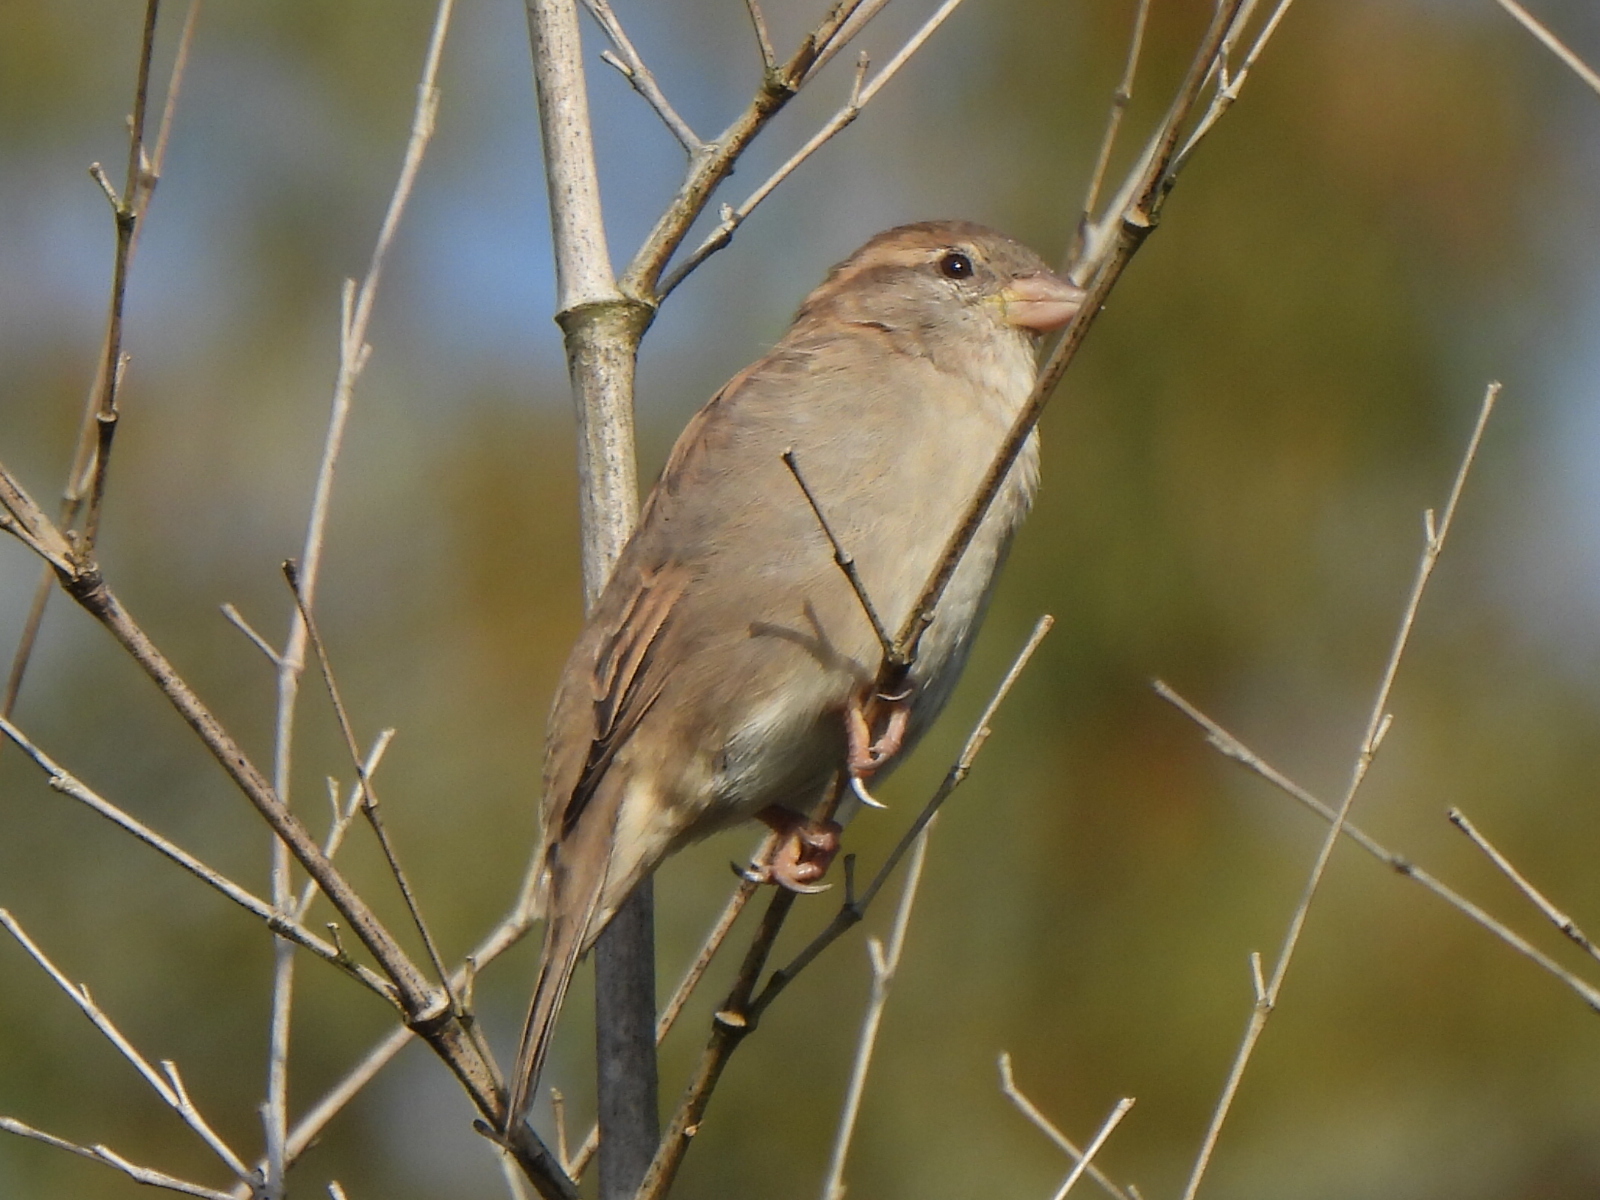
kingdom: Animalia
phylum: Chordata
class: Aves
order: Passeriformes
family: Passeridae
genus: Passer
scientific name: Passer domesticus
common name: House sparrow
